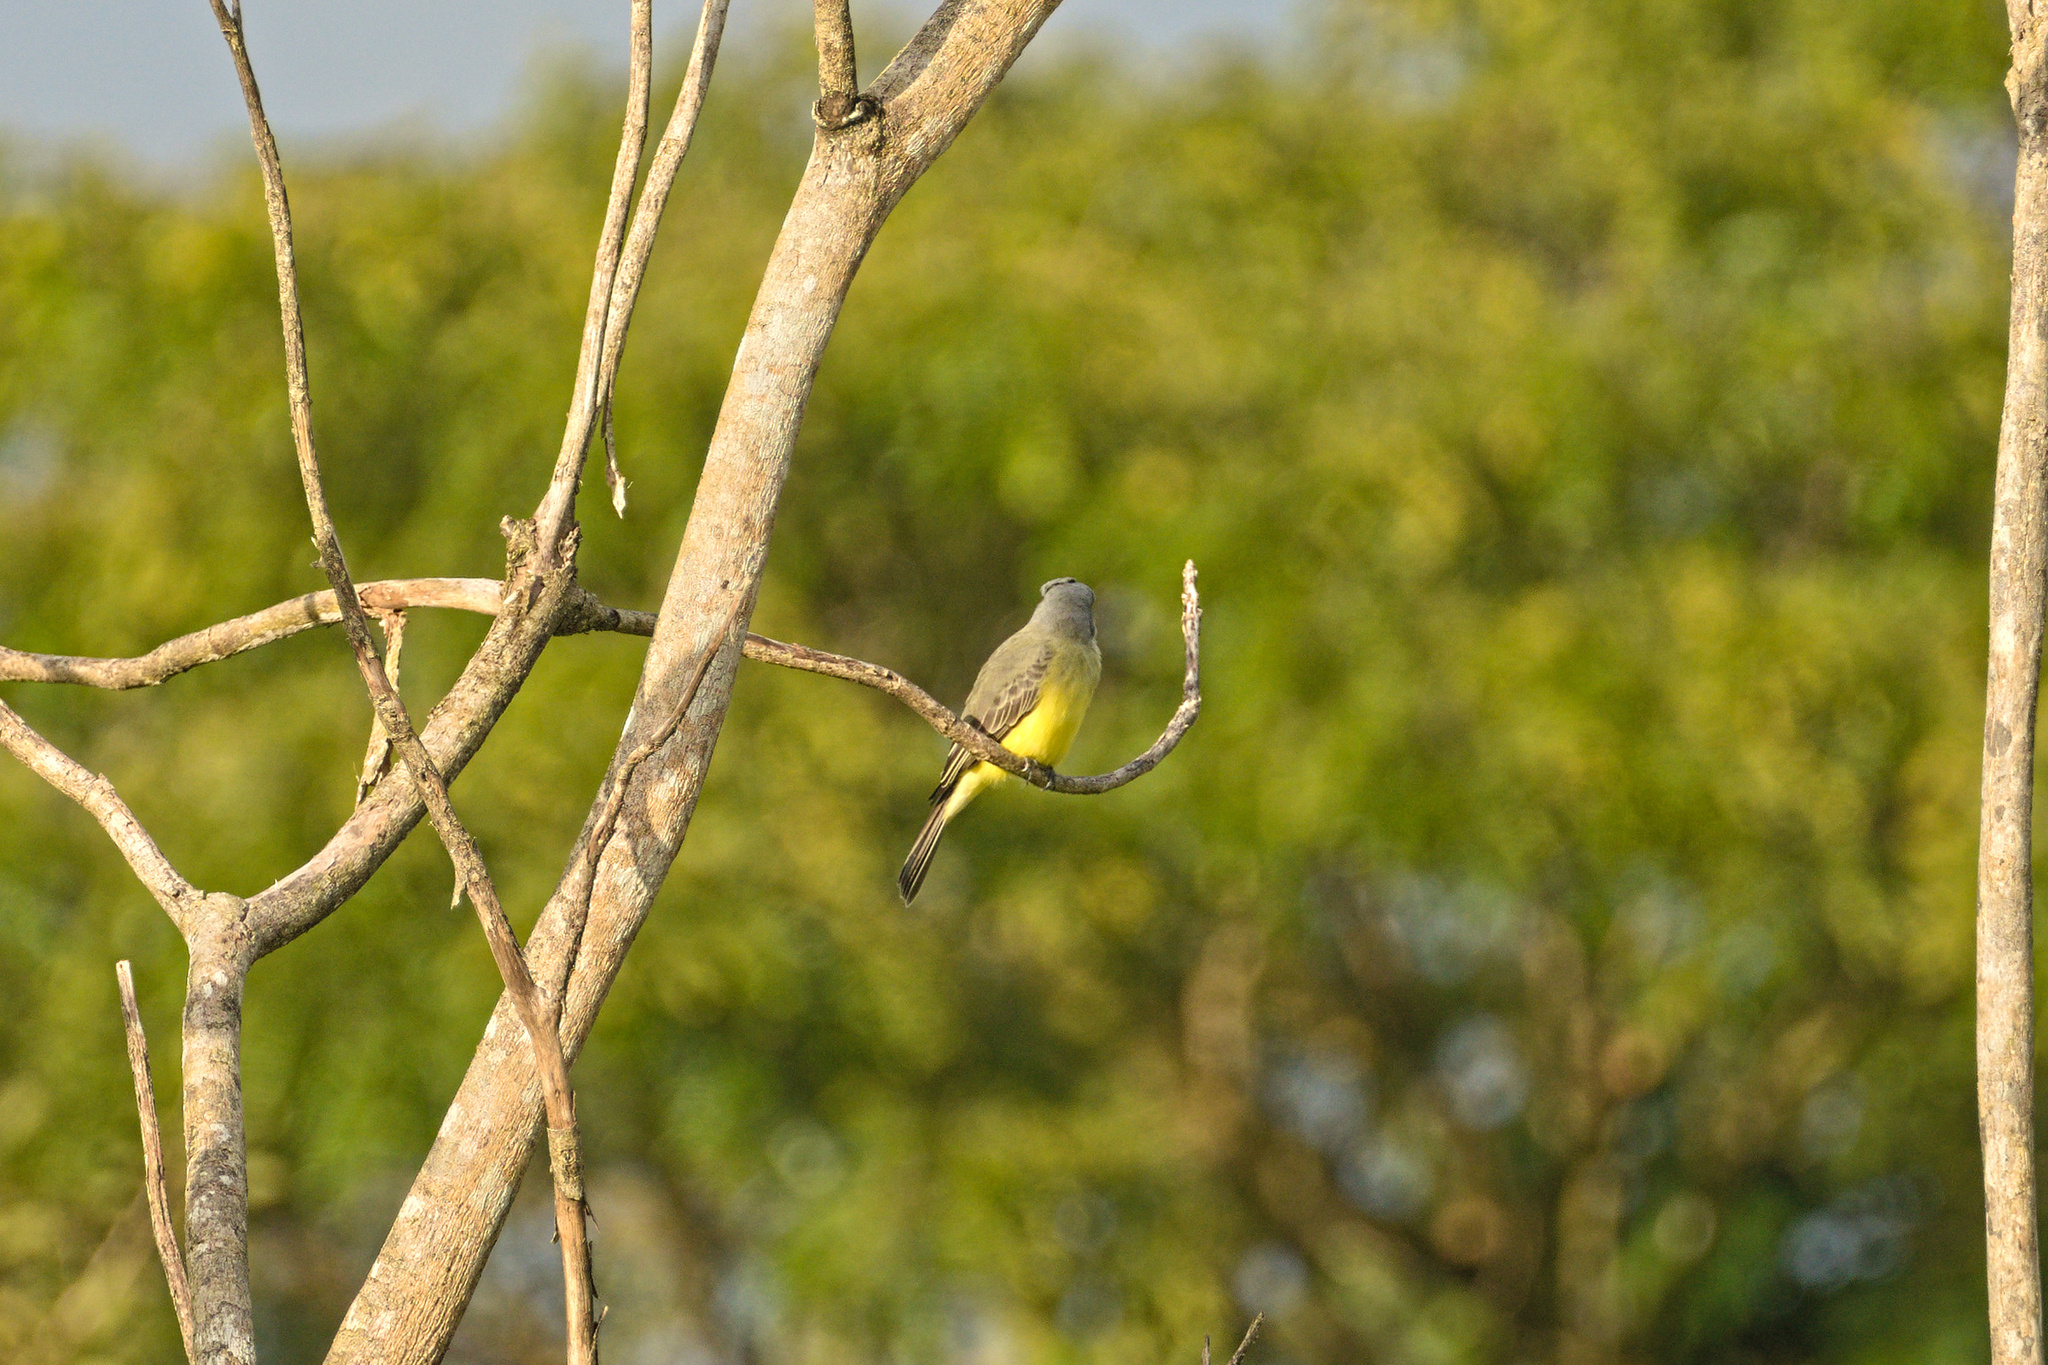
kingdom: Animalia
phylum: Chordata
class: Aves
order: Passeriformes
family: Tyrannidae
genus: Tyrannus
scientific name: Tyrannus melancholicus
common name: Tropical kingbird
